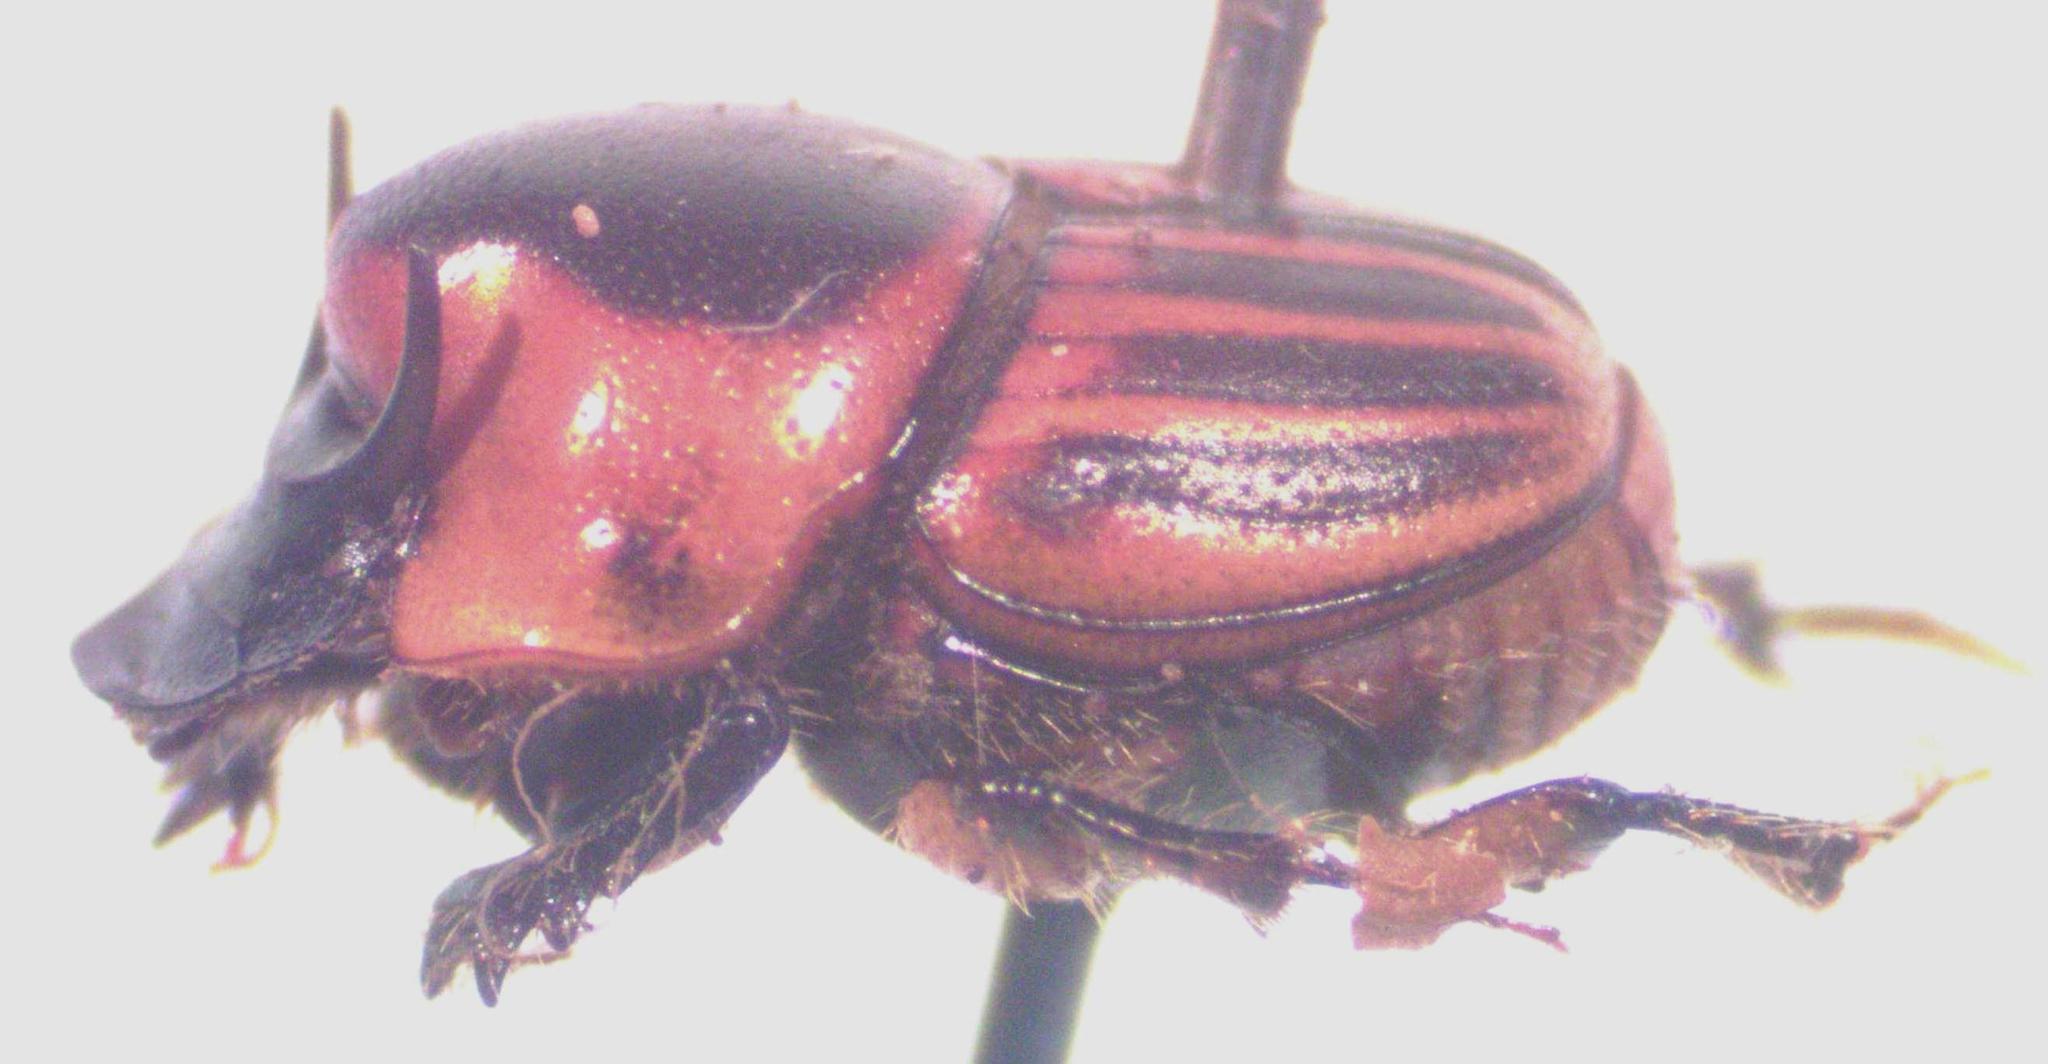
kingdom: Animalia
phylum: Arthropoda
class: Insecta
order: Coleoptera
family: Scarabaeidae
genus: Onthophagus
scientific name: Onthophagus marginicollis
